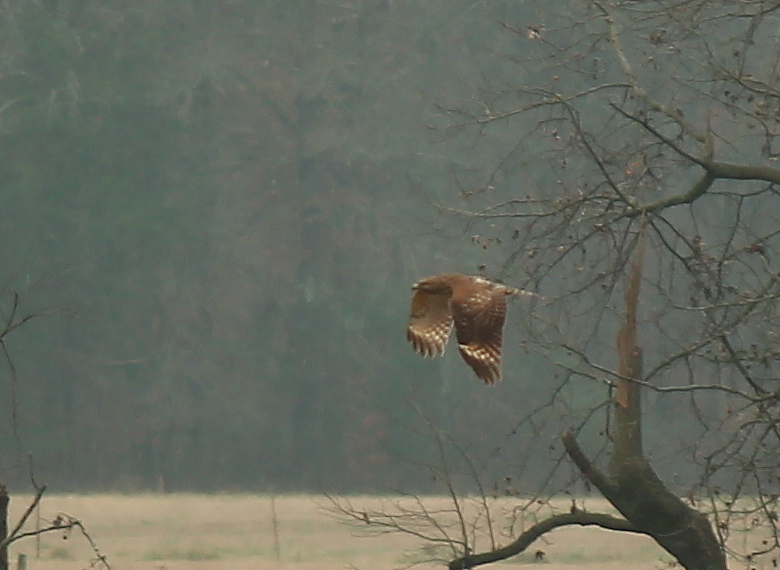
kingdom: Animalia
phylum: Chordata
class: Aves
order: Accipitriformes
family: Accipitridae
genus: Buteo
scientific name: Buteo lineatus
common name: Red-shouldered hawk
